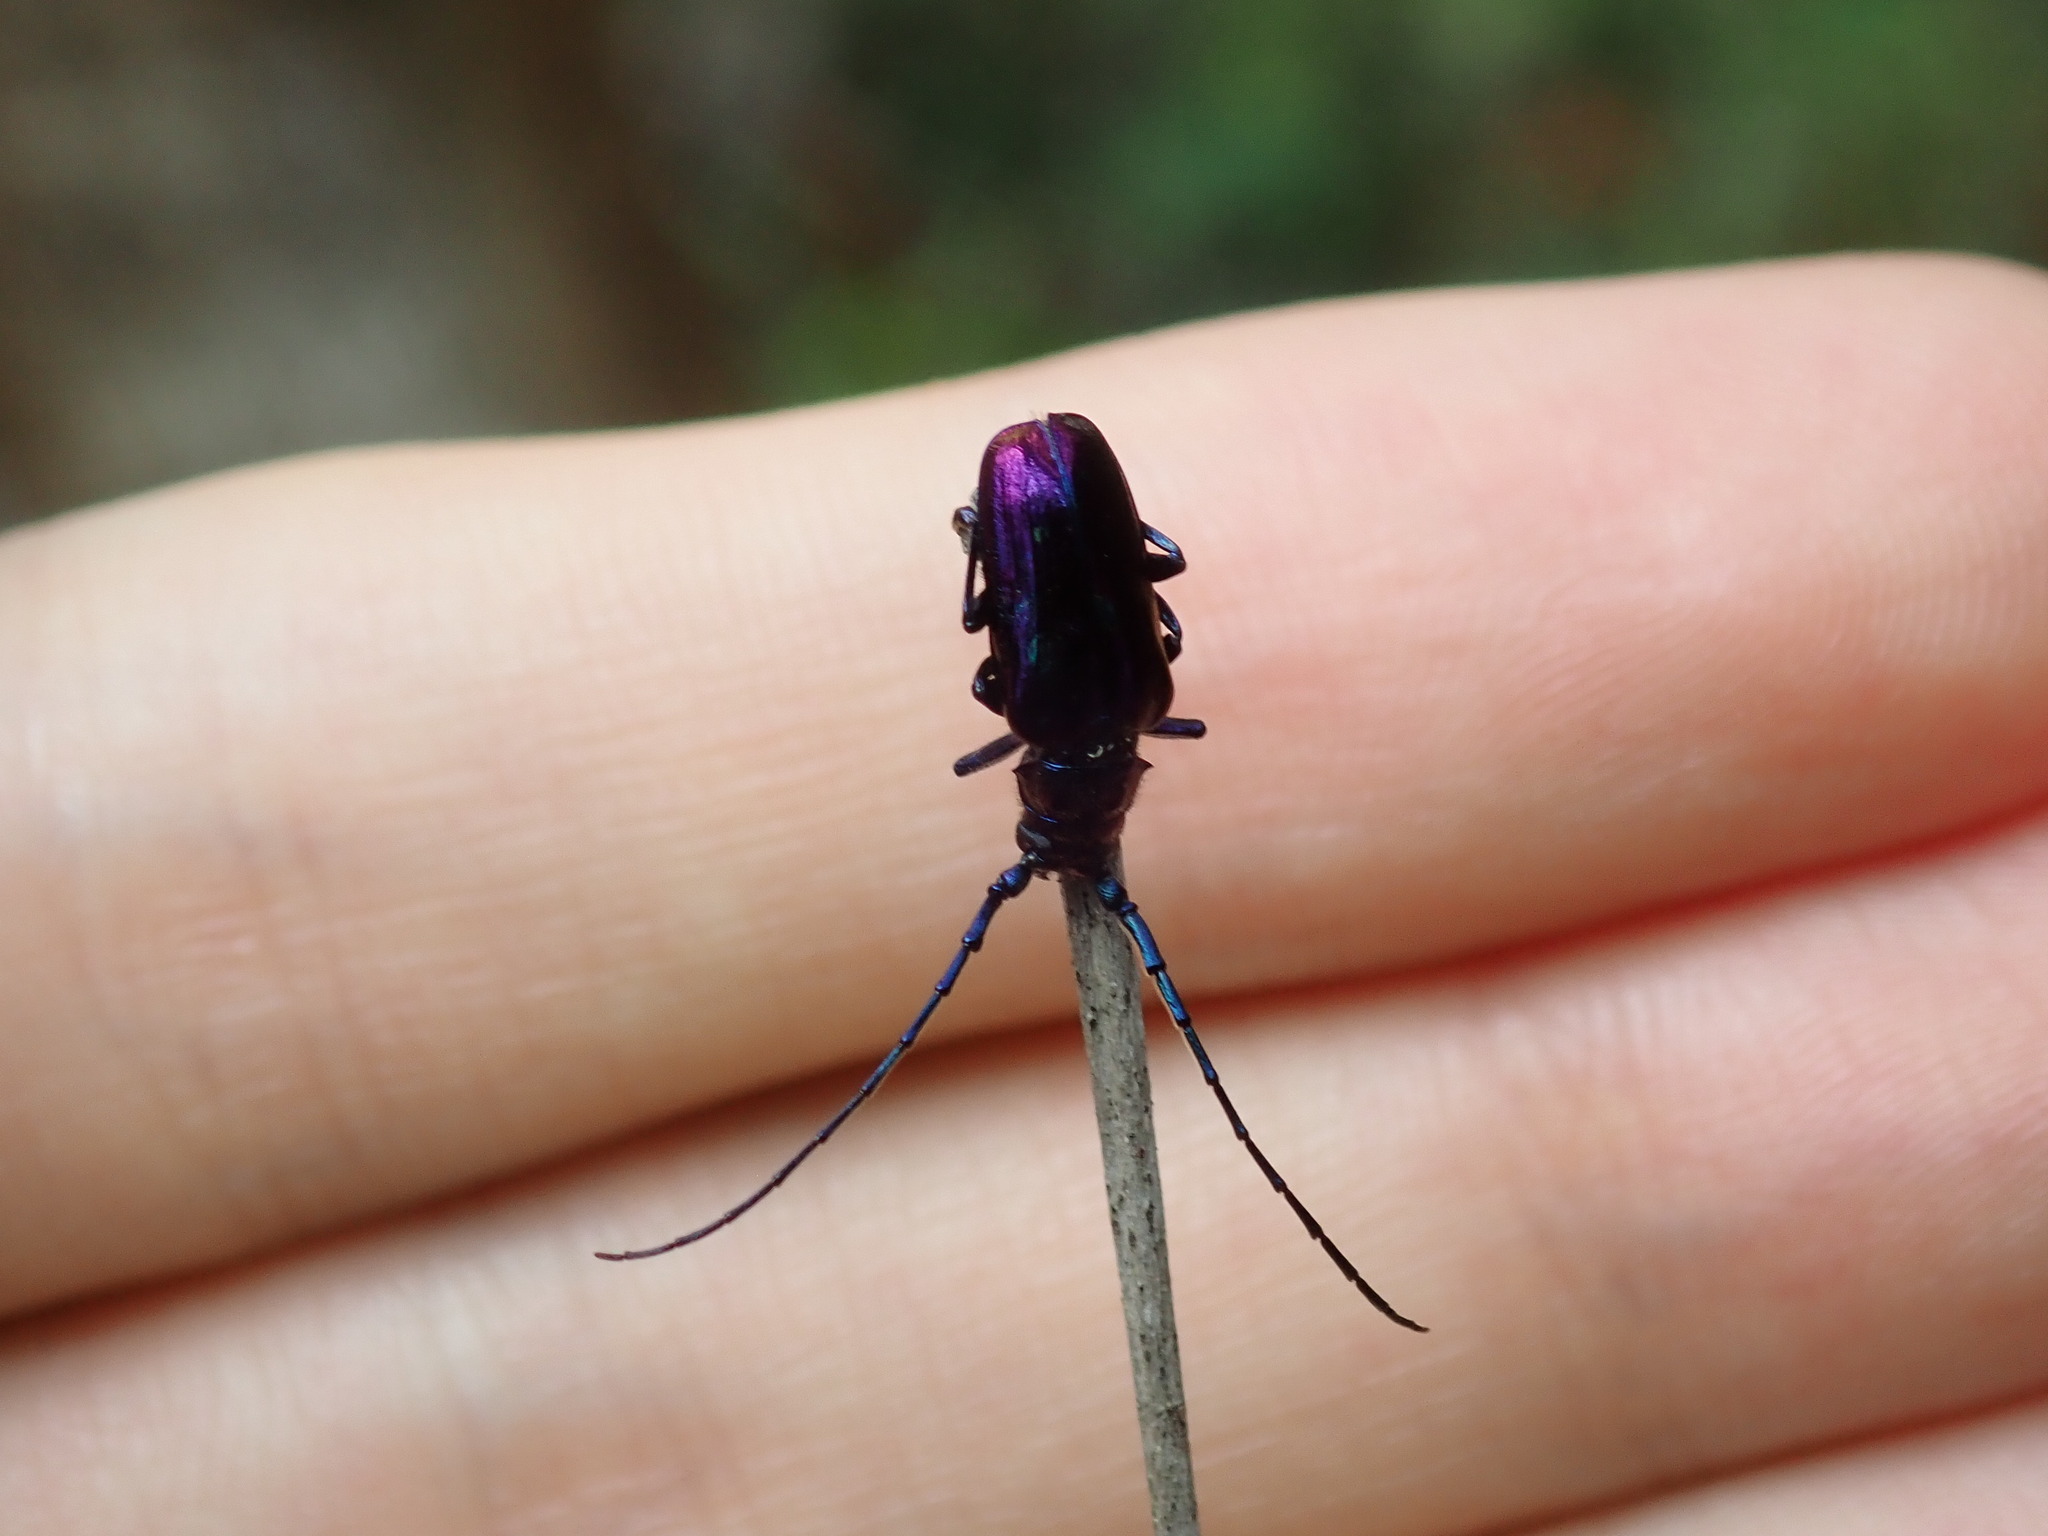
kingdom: Animalia
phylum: Arthropoda
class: Insecta
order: Coleoptera
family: Cerambycidae
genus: Phaolus
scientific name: Phaolus metallicus
